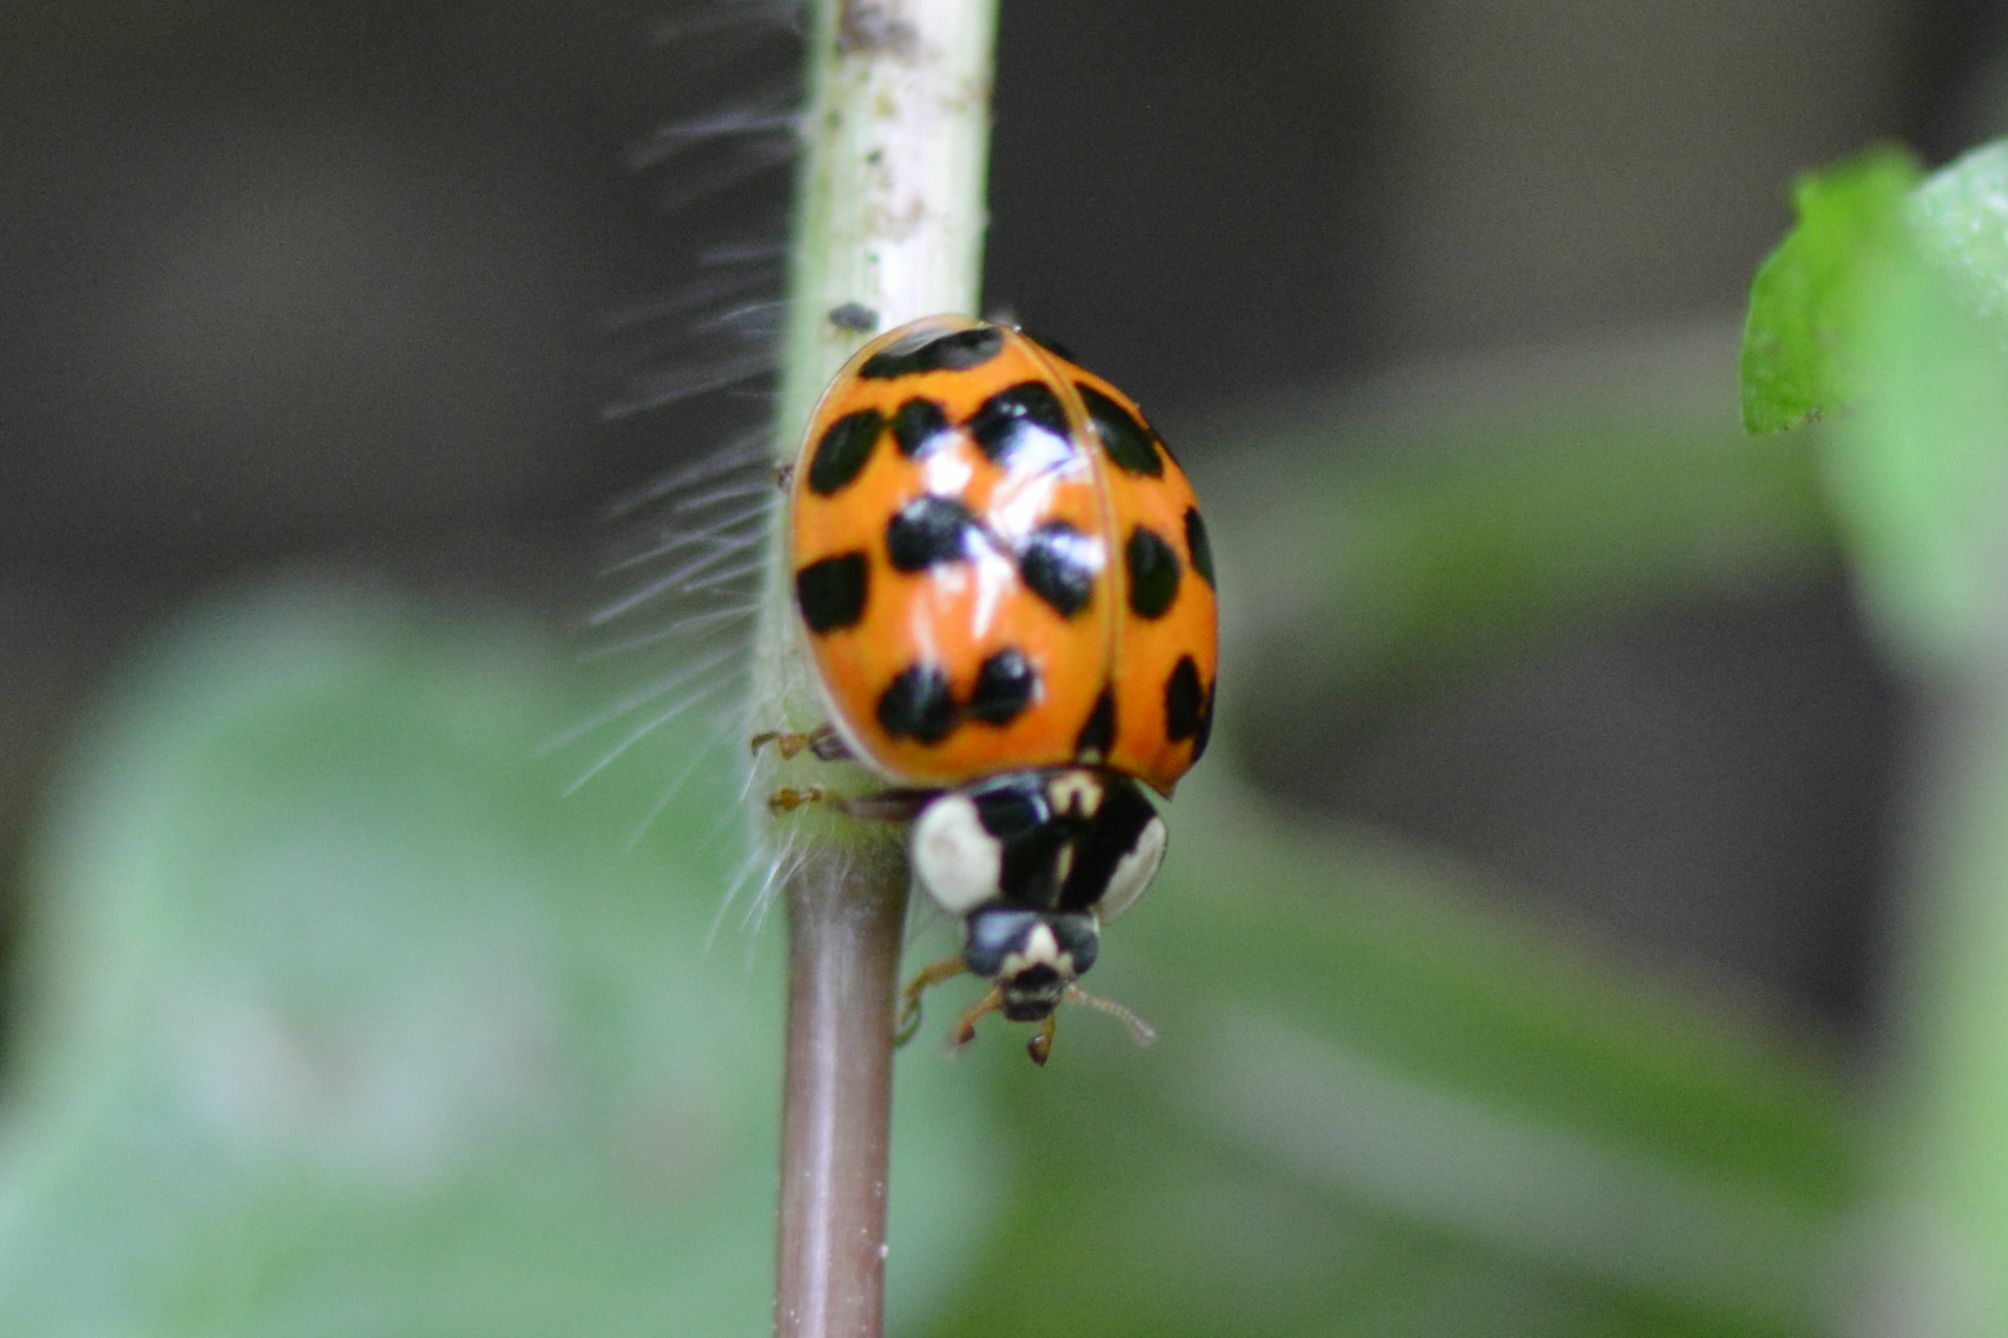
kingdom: Animalia
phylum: Arthropoda
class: Insecta
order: Coleoptera
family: Coccinellidae
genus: Harmonia
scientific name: Harmonia axyridis
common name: Harlequin ladybird
